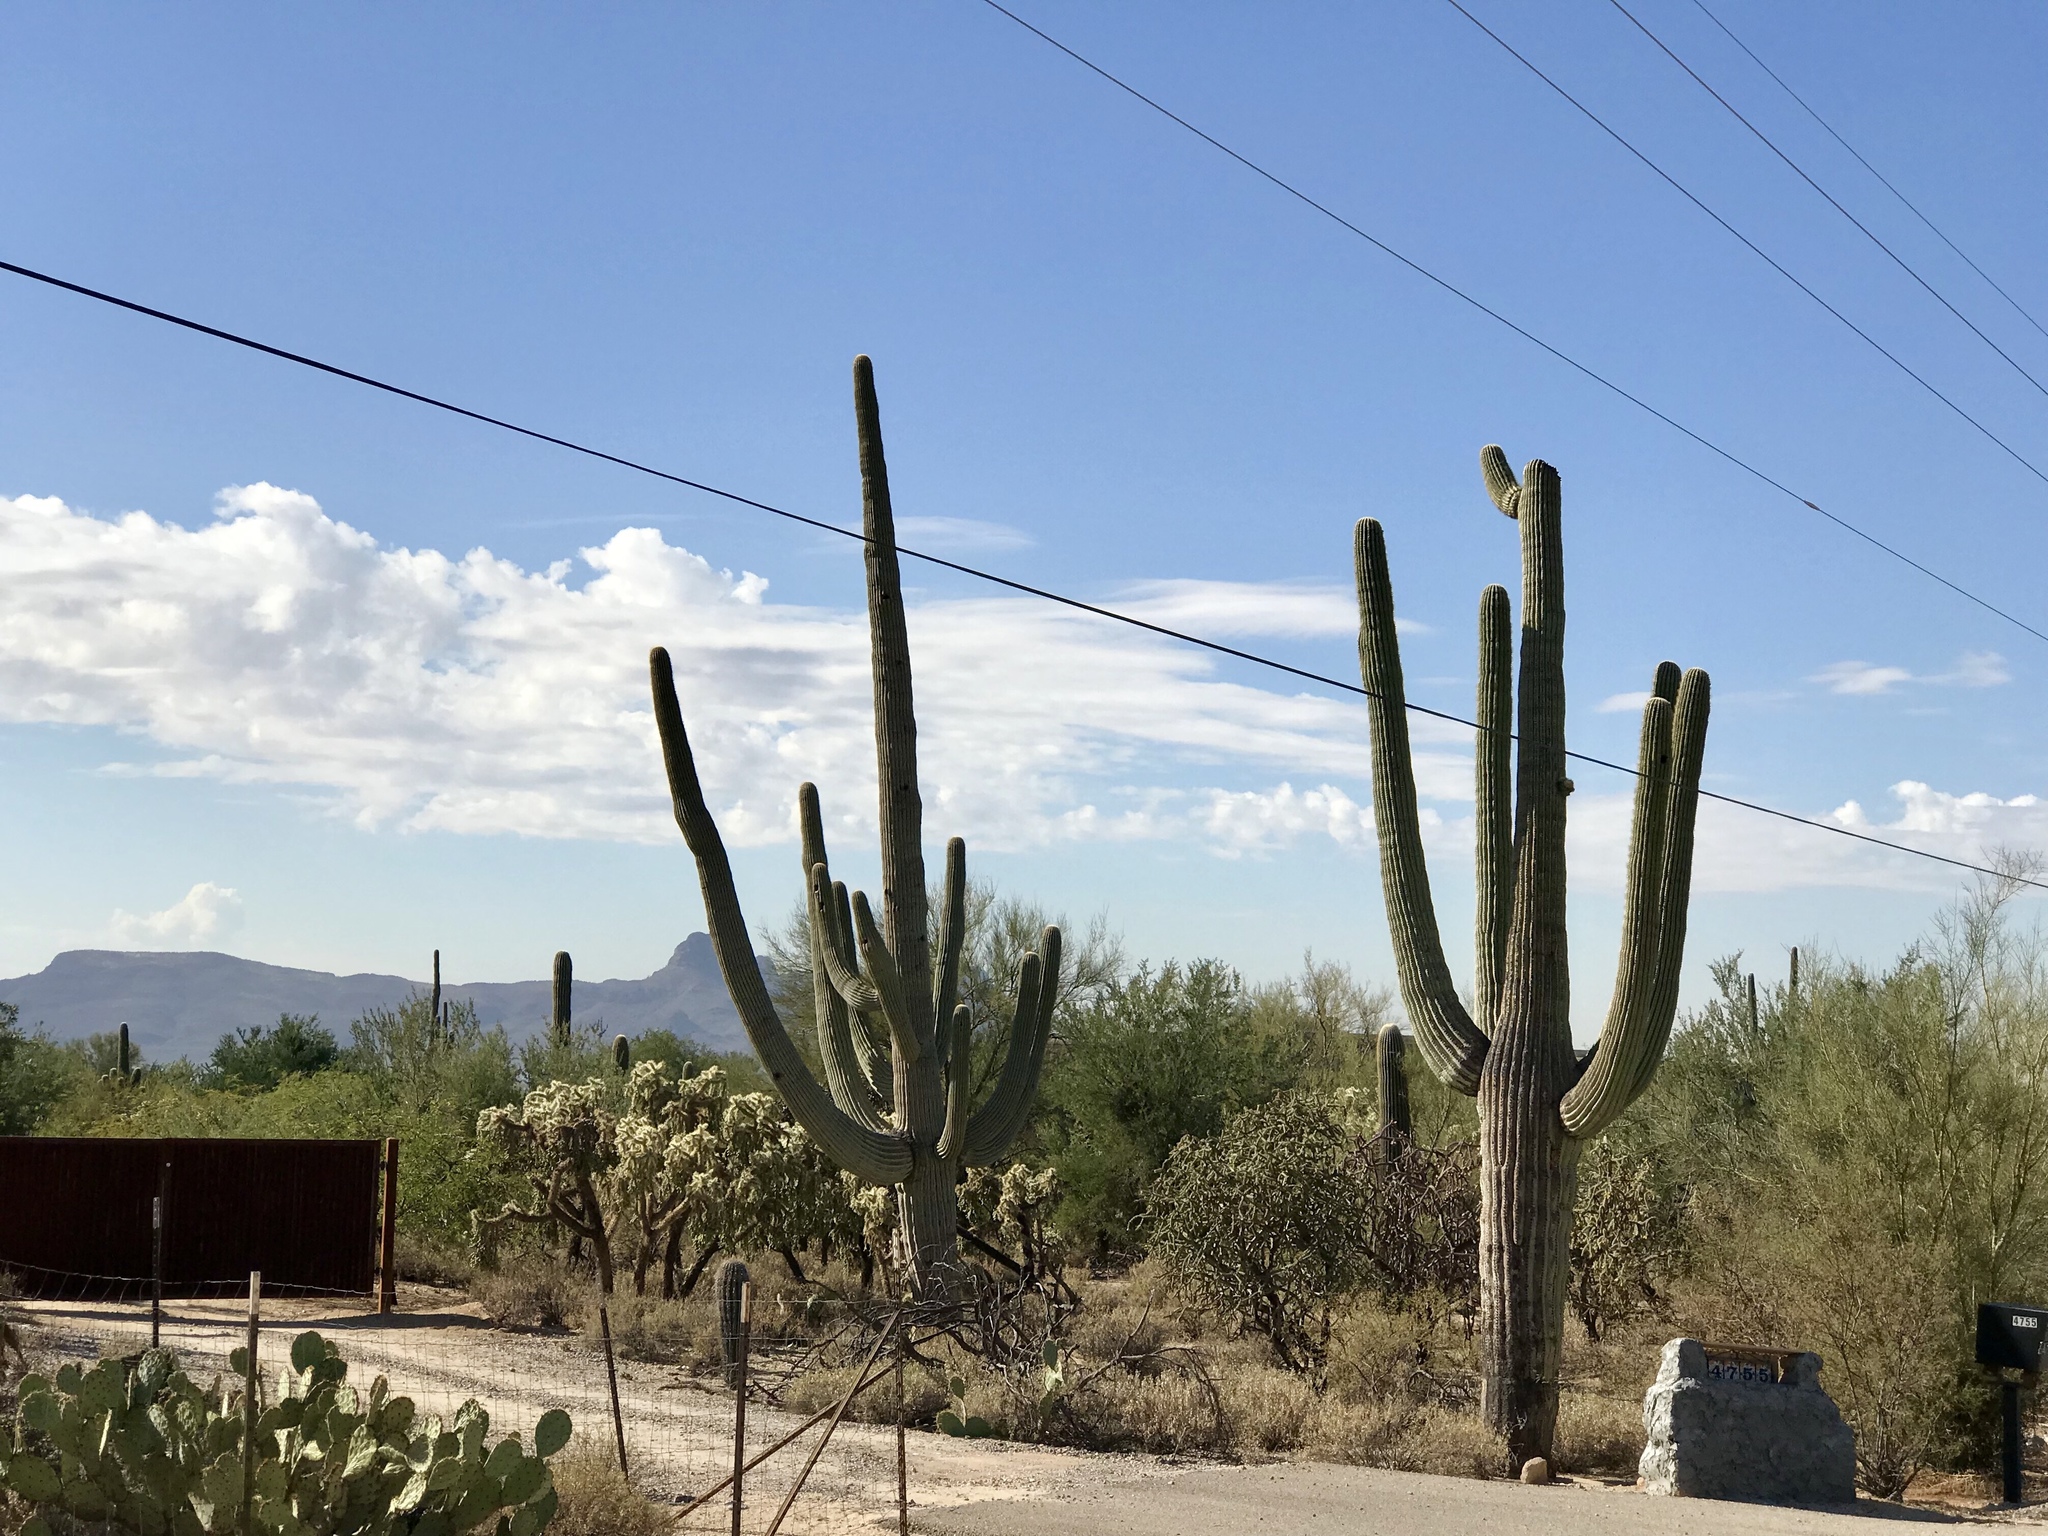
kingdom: Plantae
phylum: Tracheophyta
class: Magnoliopsida
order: Caryophyllales
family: Cactaceae
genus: Carnegiea
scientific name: Carnegiea gigantea
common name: Saguaro
